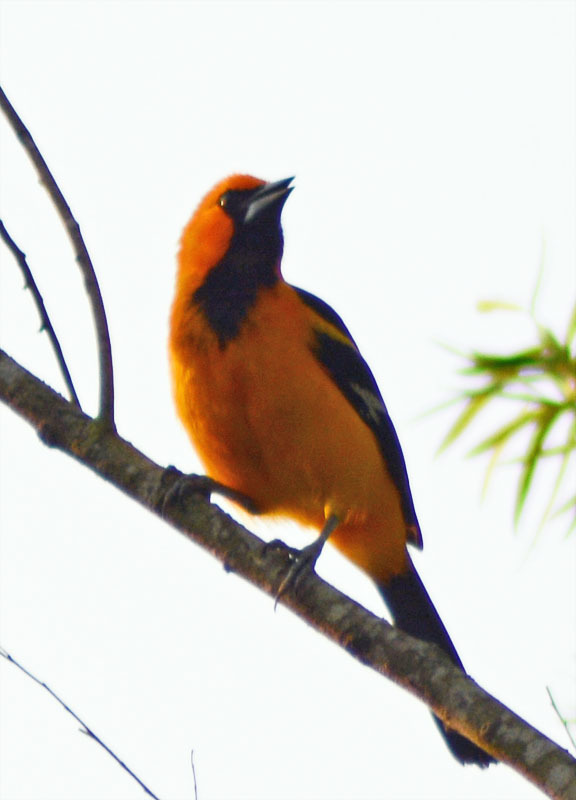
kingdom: Animalia
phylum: Chordata
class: Aves
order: Passeriformes
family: Icteridae
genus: Icterus
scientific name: Icterus gularis
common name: Altamira oriole
